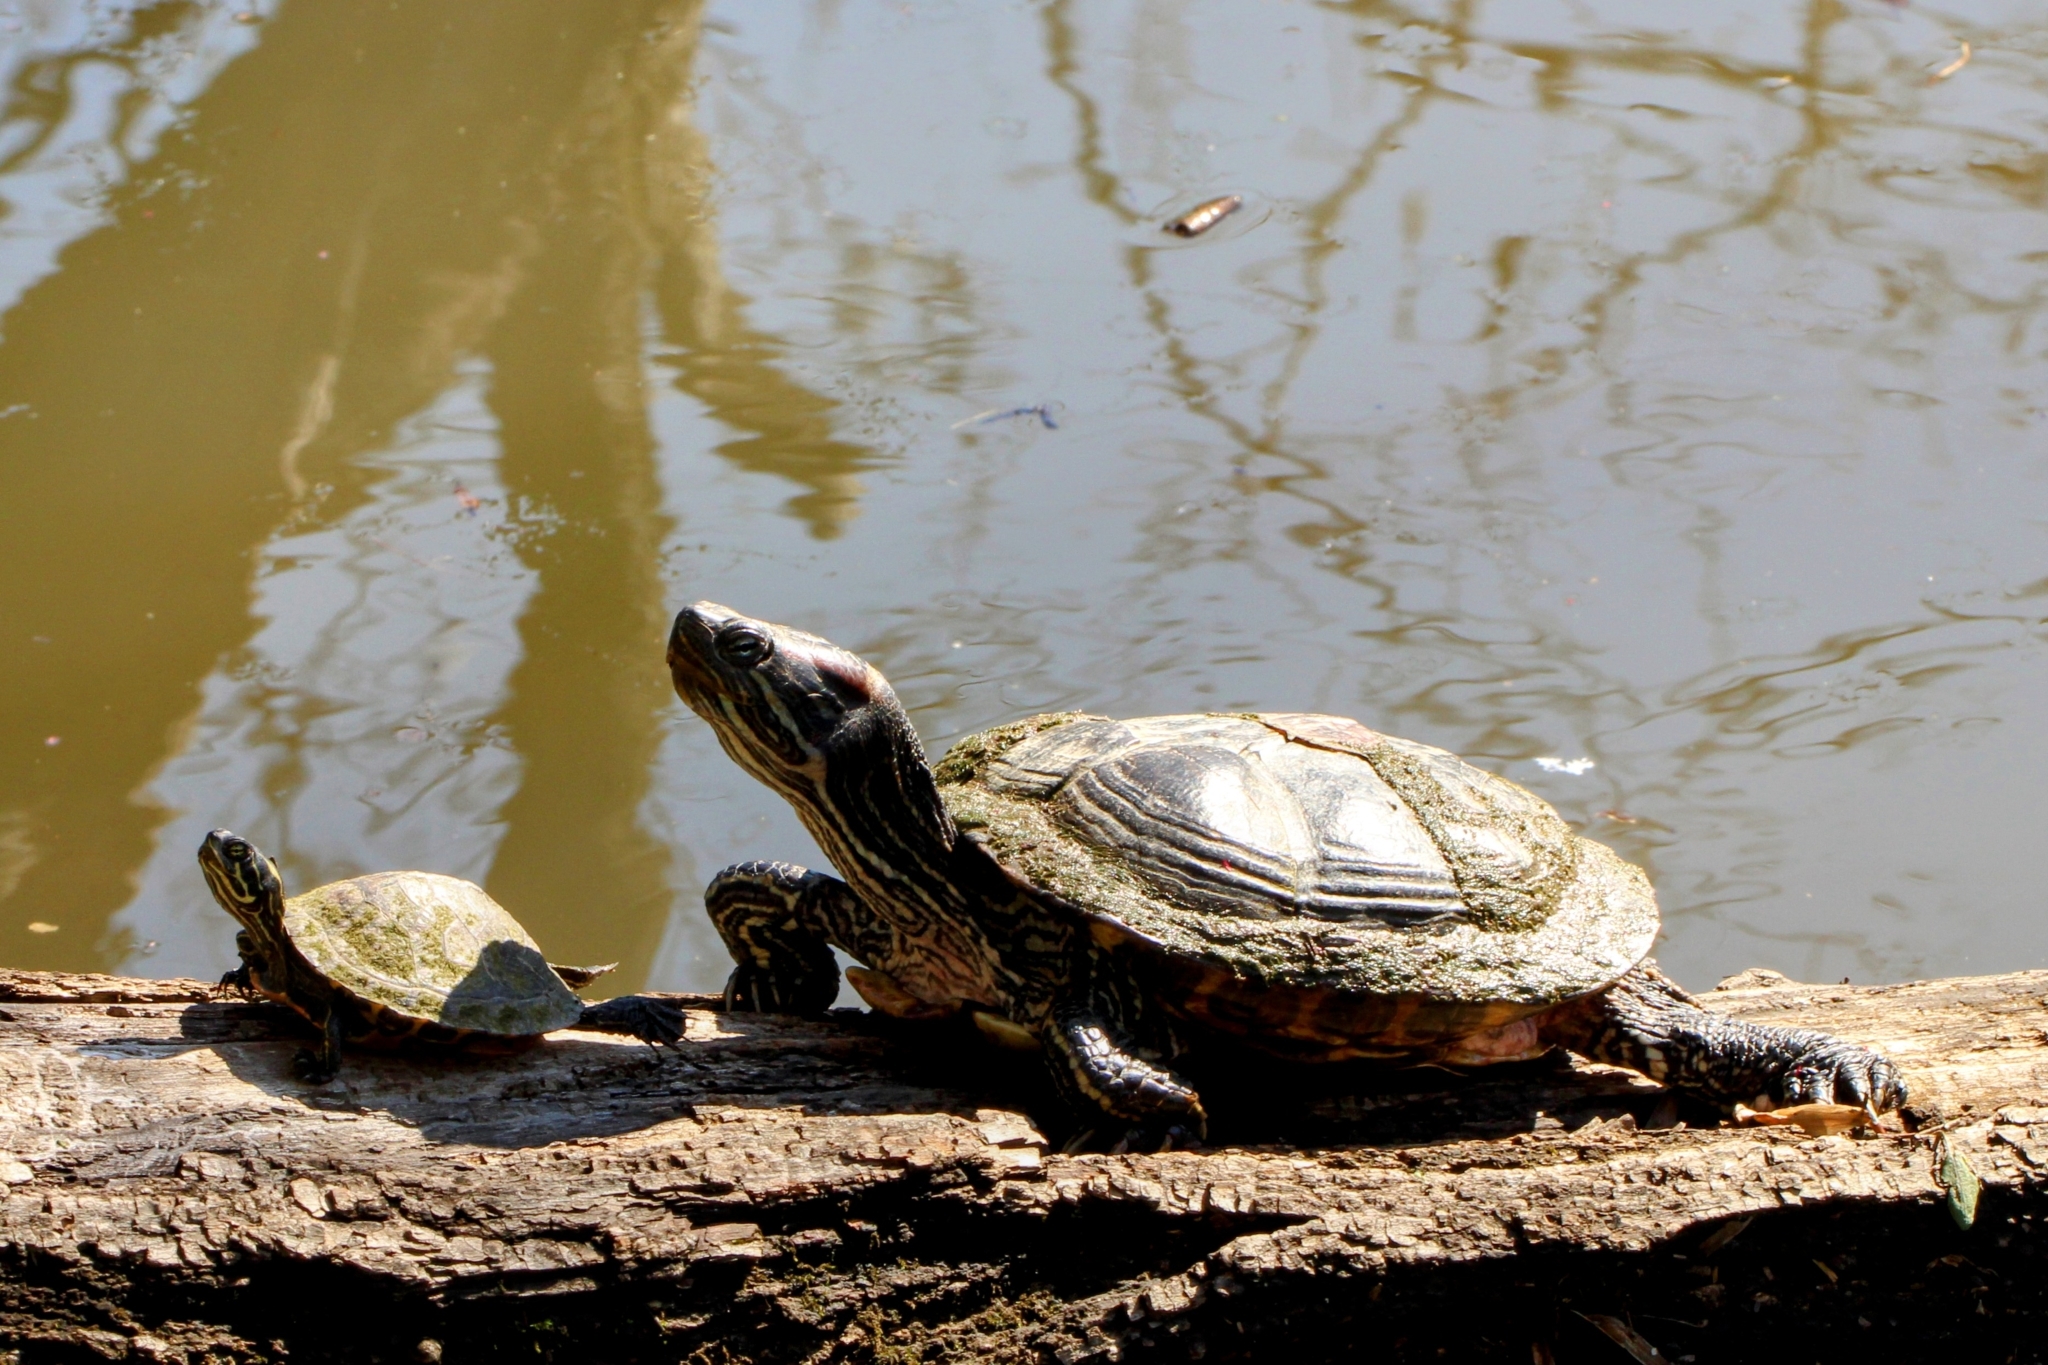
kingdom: Animalia
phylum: Chordata
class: Testudines
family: Emydidae
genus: Trachemys
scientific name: Trachemys scripta
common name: Slider
